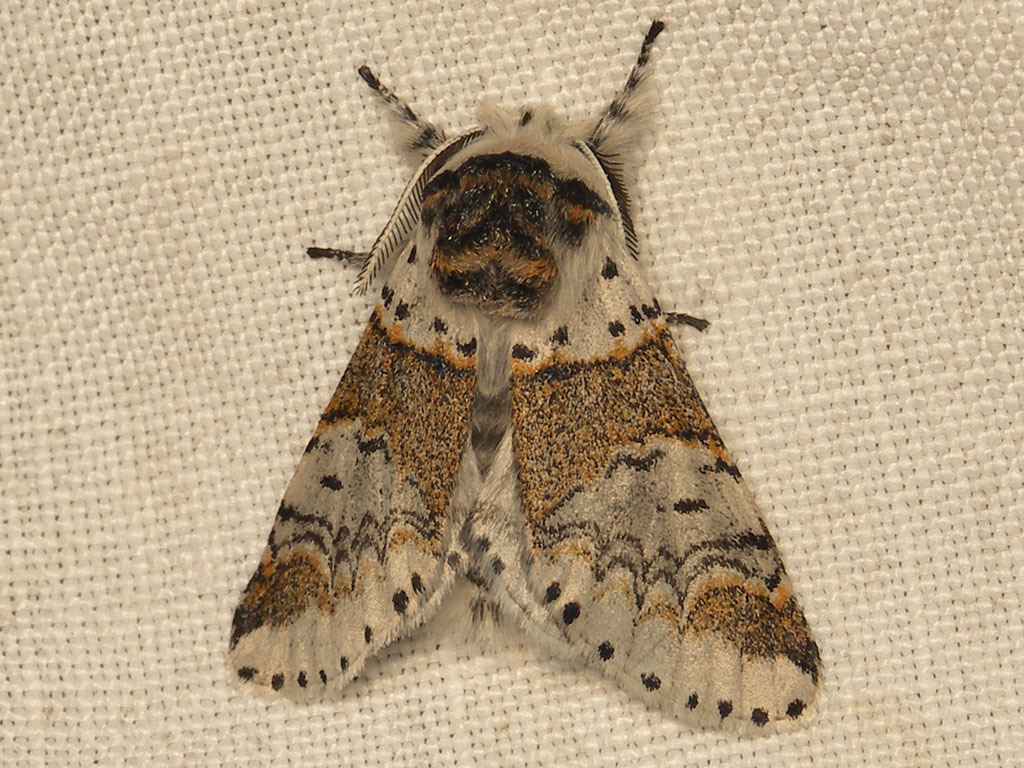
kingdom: Animalia
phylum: Arthropoda
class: Insecta
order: Lepidoptera
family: Notodontidae
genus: Furcula
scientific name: Furcula furcula
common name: Sallow kitten
